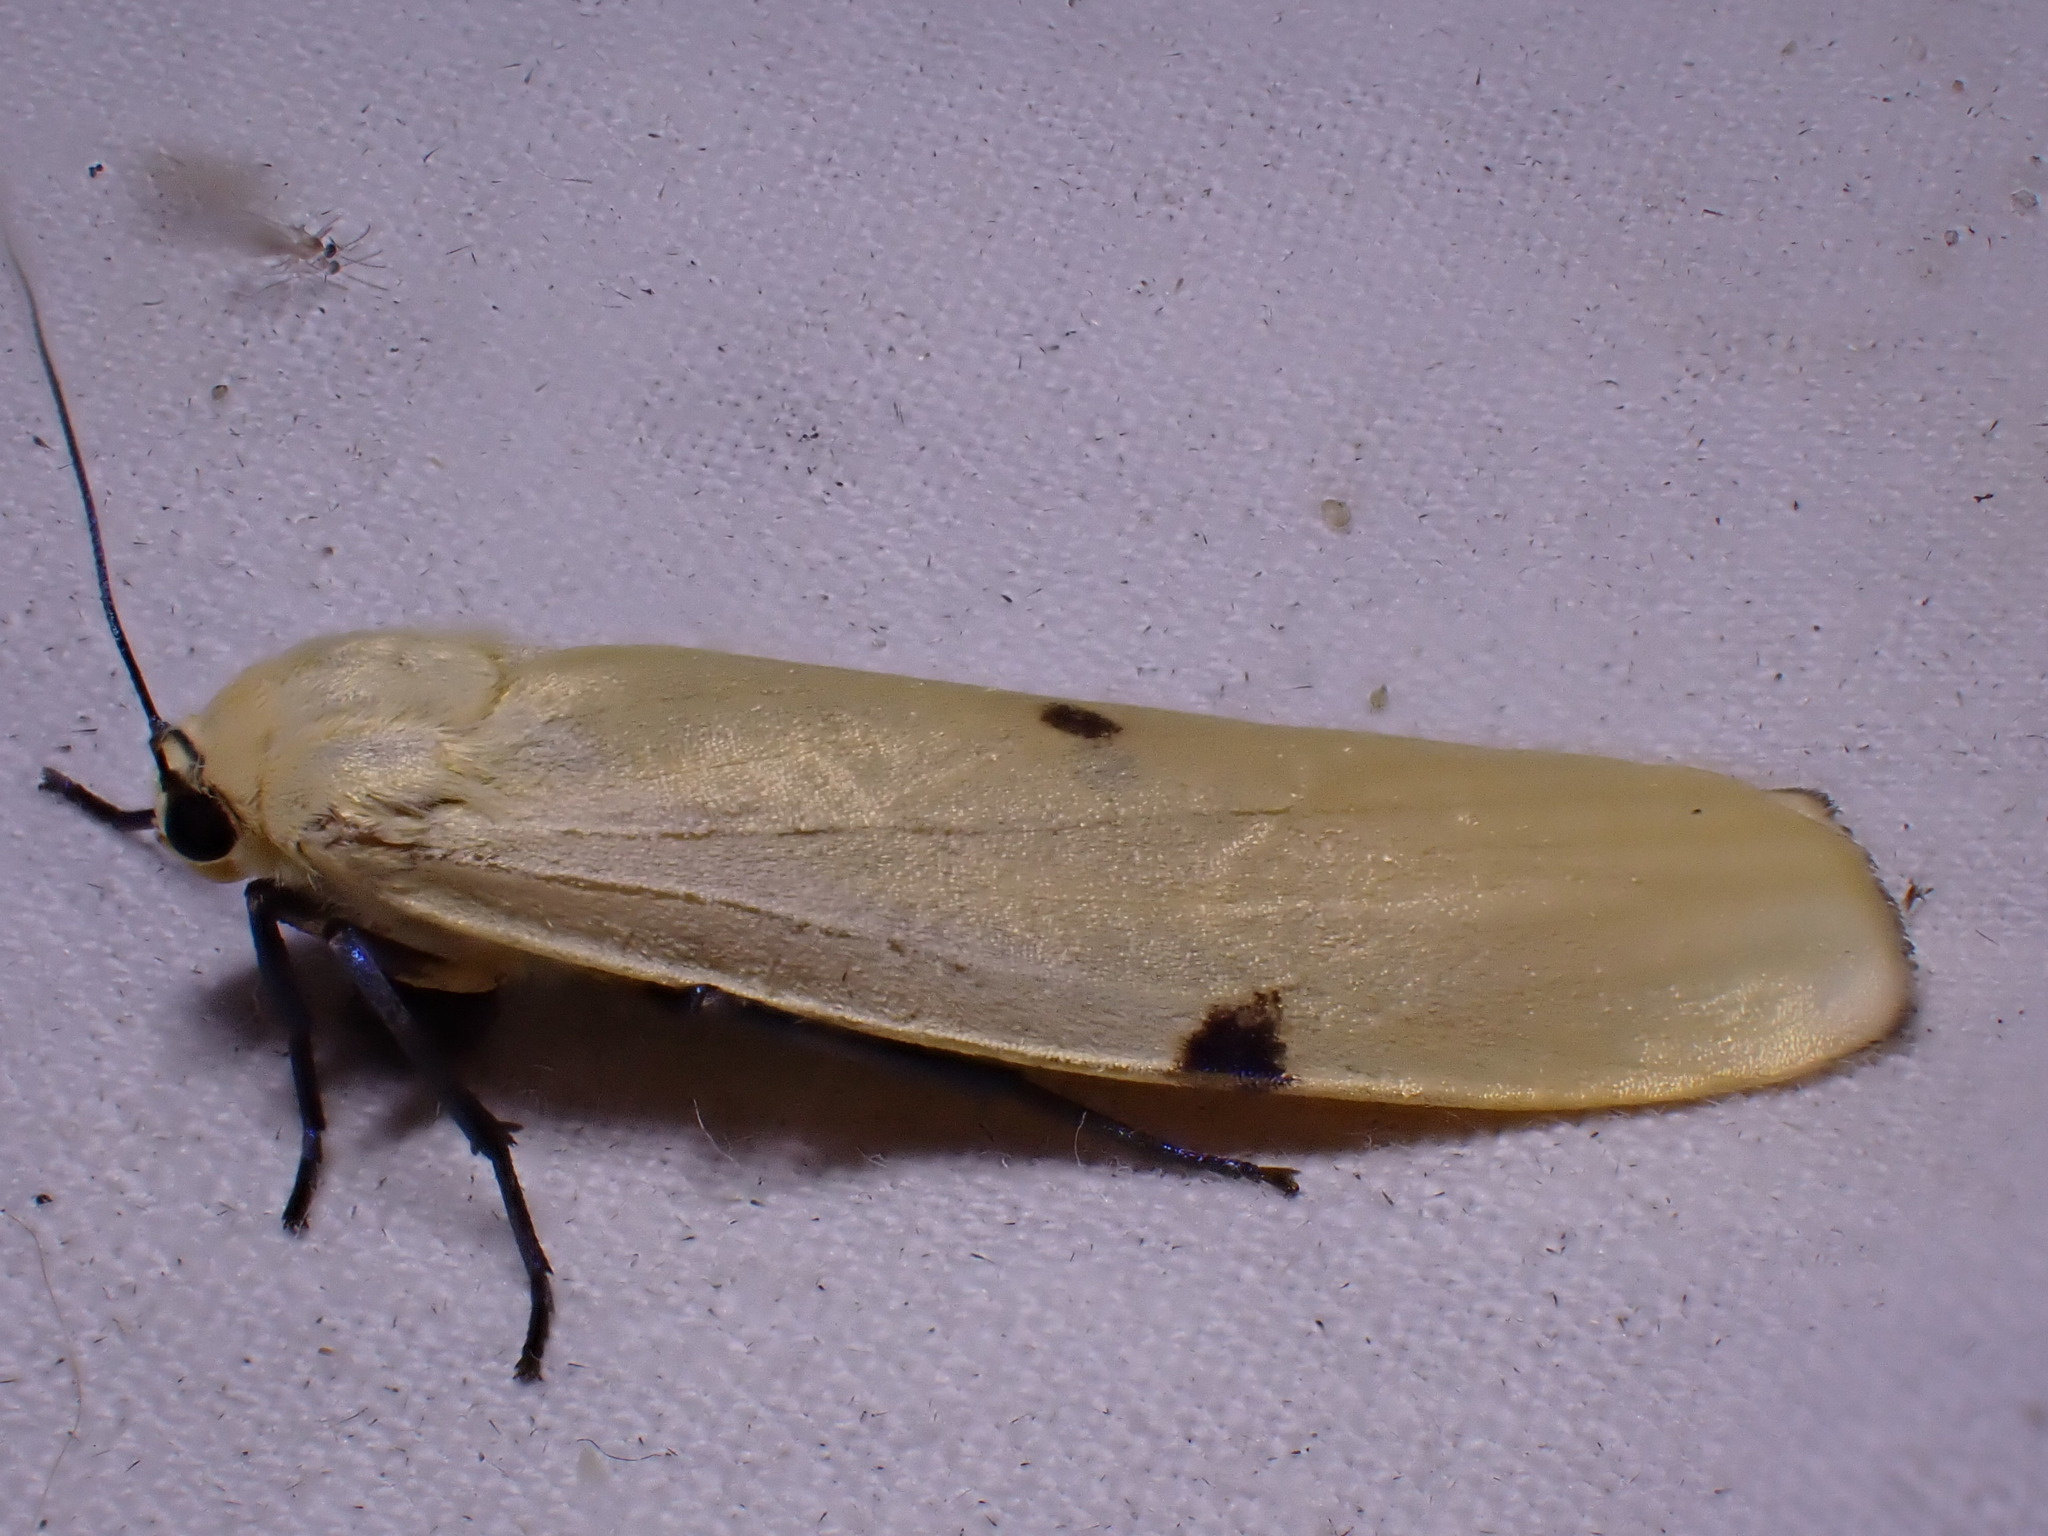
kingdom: Animalia
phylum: Arthropoda
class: Insecta
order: Lepidoptera
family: Erebidae
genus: Lithosia
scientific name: Lithosia quadra
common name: Four-spotted footman
